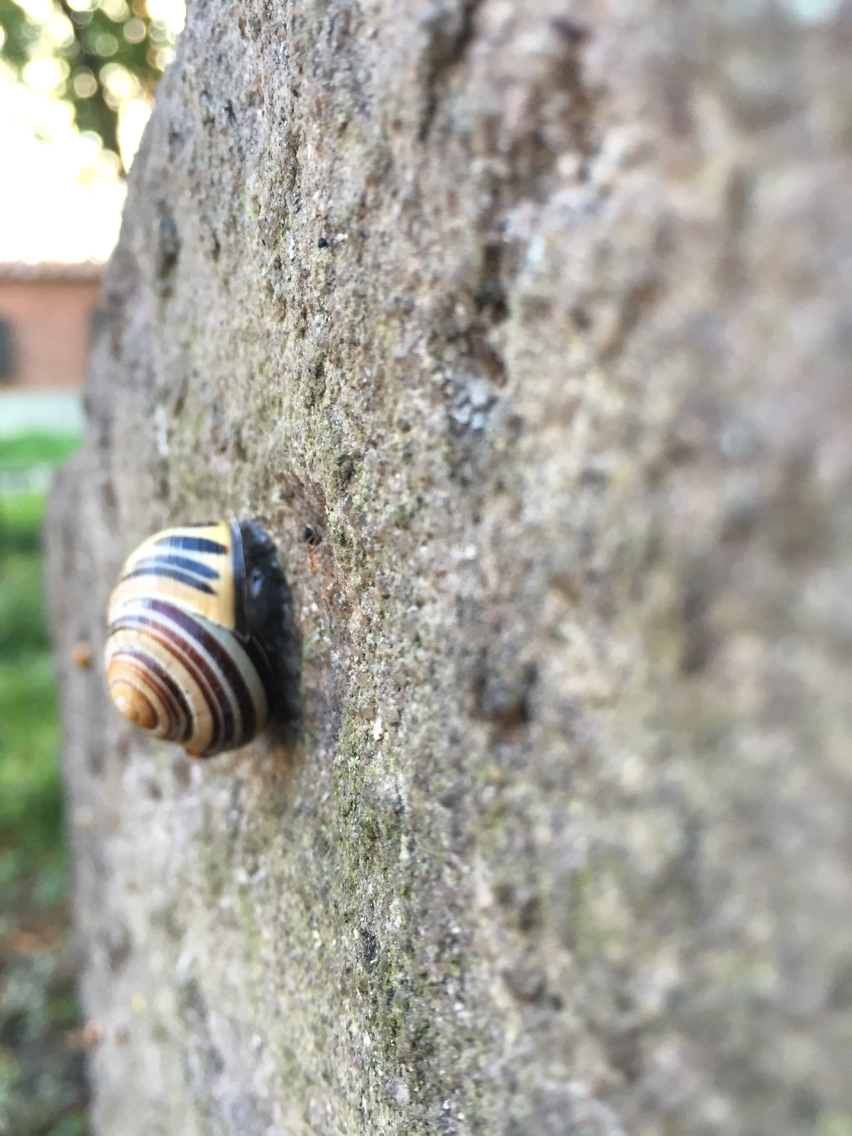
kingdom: Animalia
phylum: Mollusca
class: Gastropoda
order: Stylommatophora
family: Helicidae
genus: Cepaea
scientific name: Cepaea nemoralis
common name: Grovesnail
